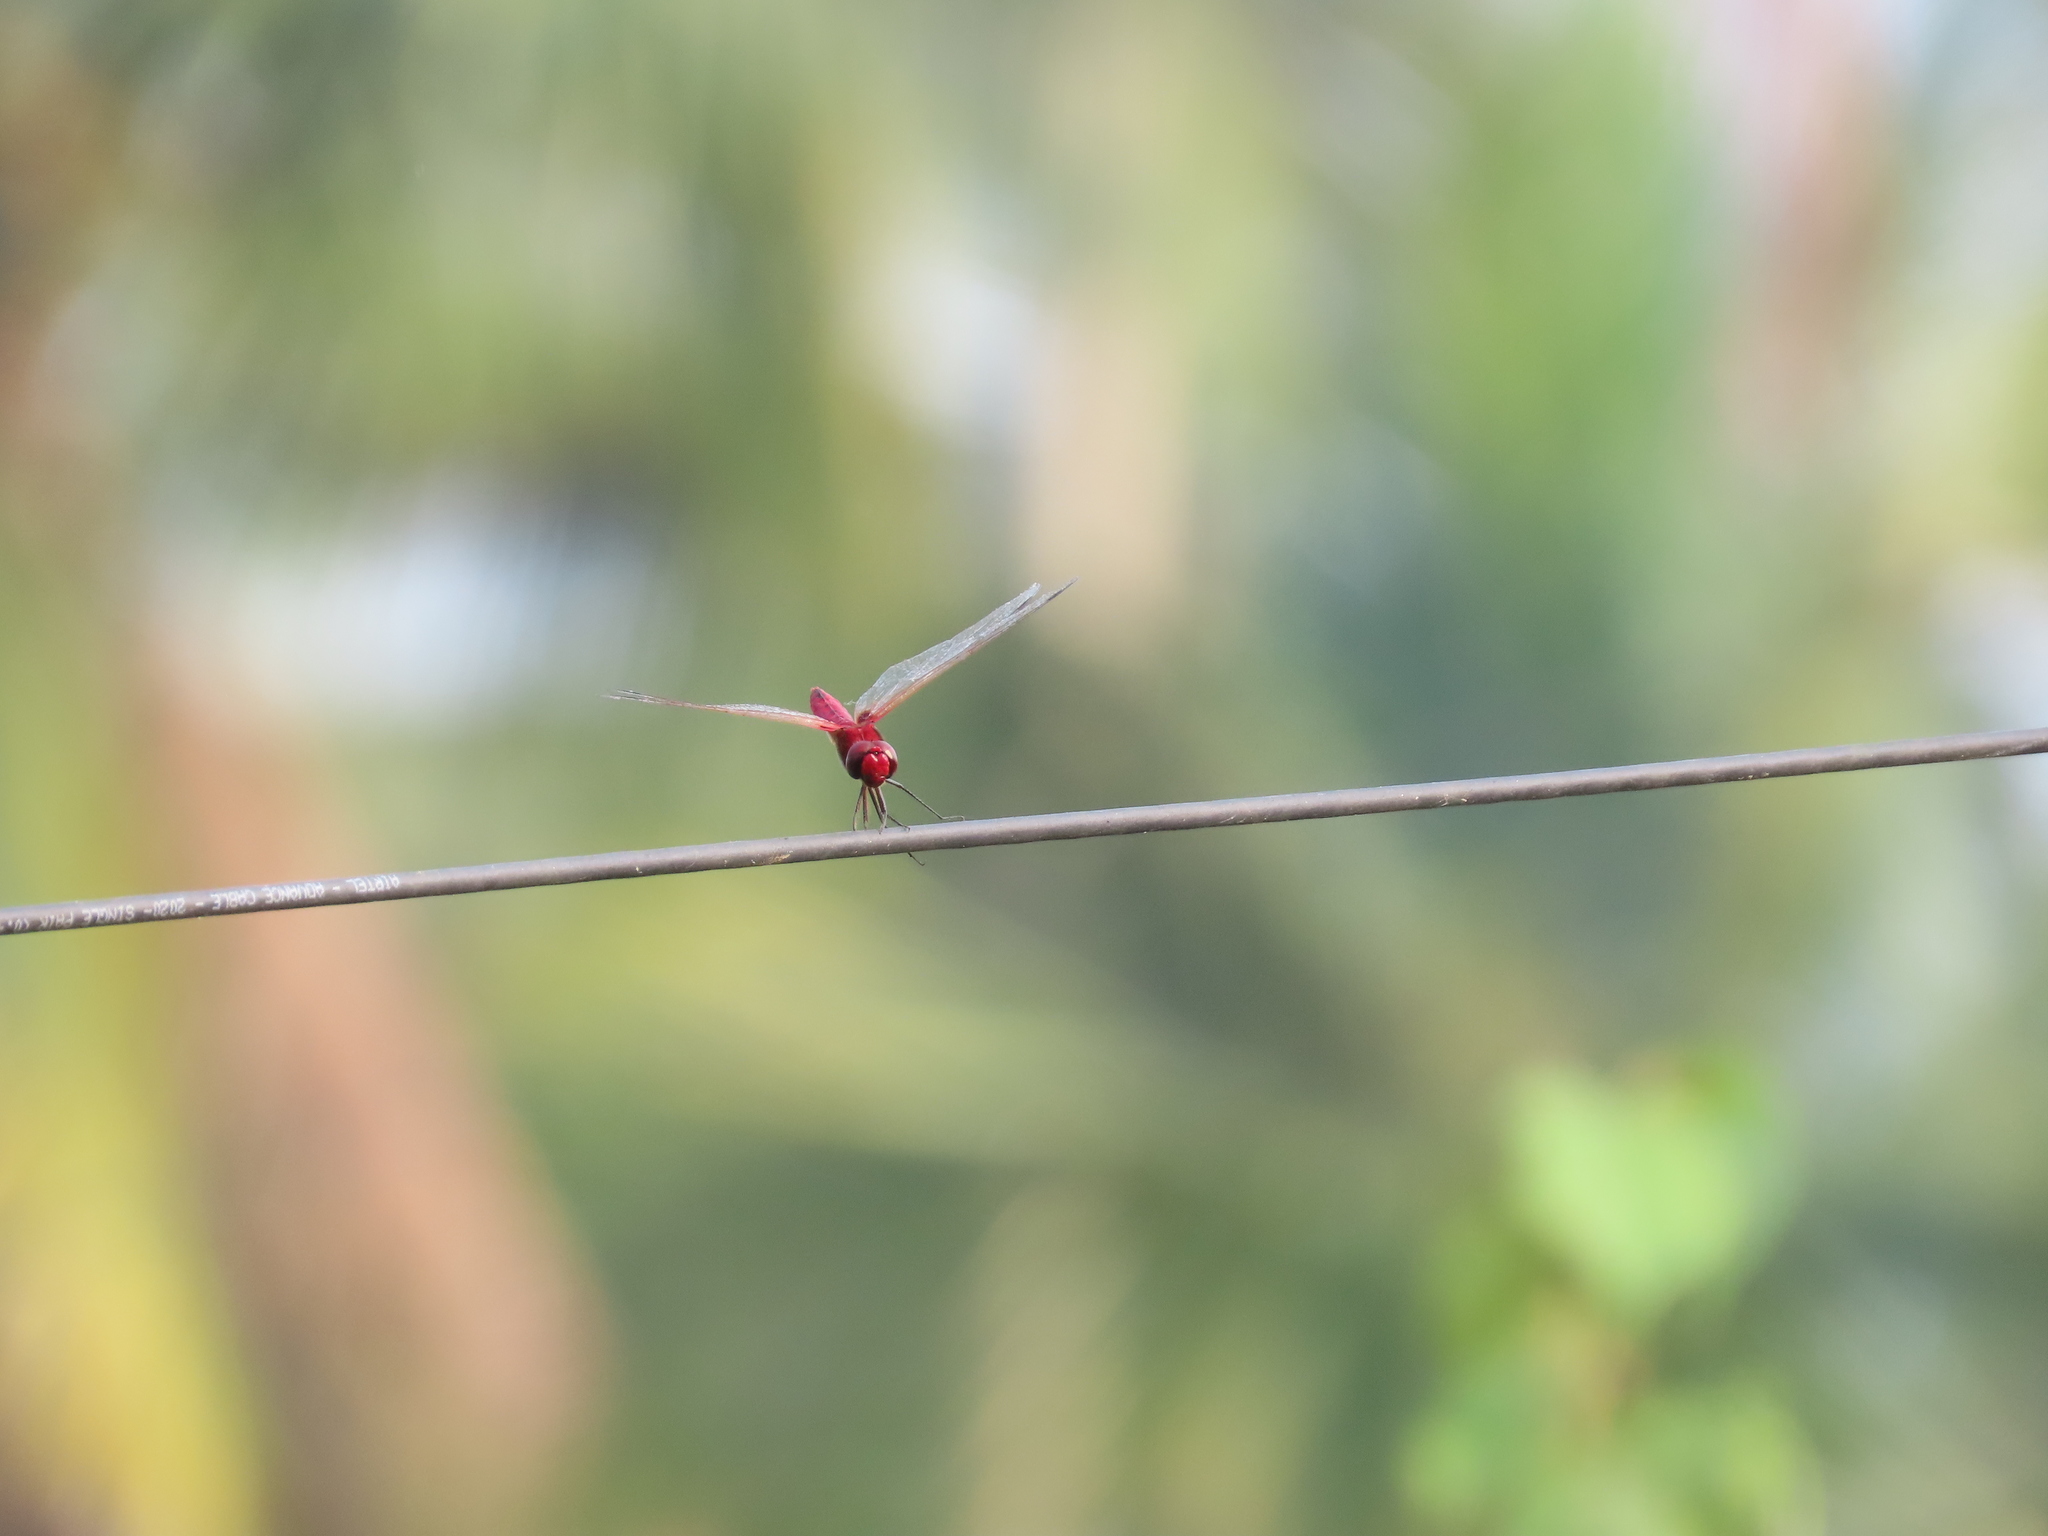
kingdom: Animalia
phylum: Arthropoda
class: Insecta
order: Odonata
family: Libellulidae
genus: Urothemis
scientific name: Urothemis signata
